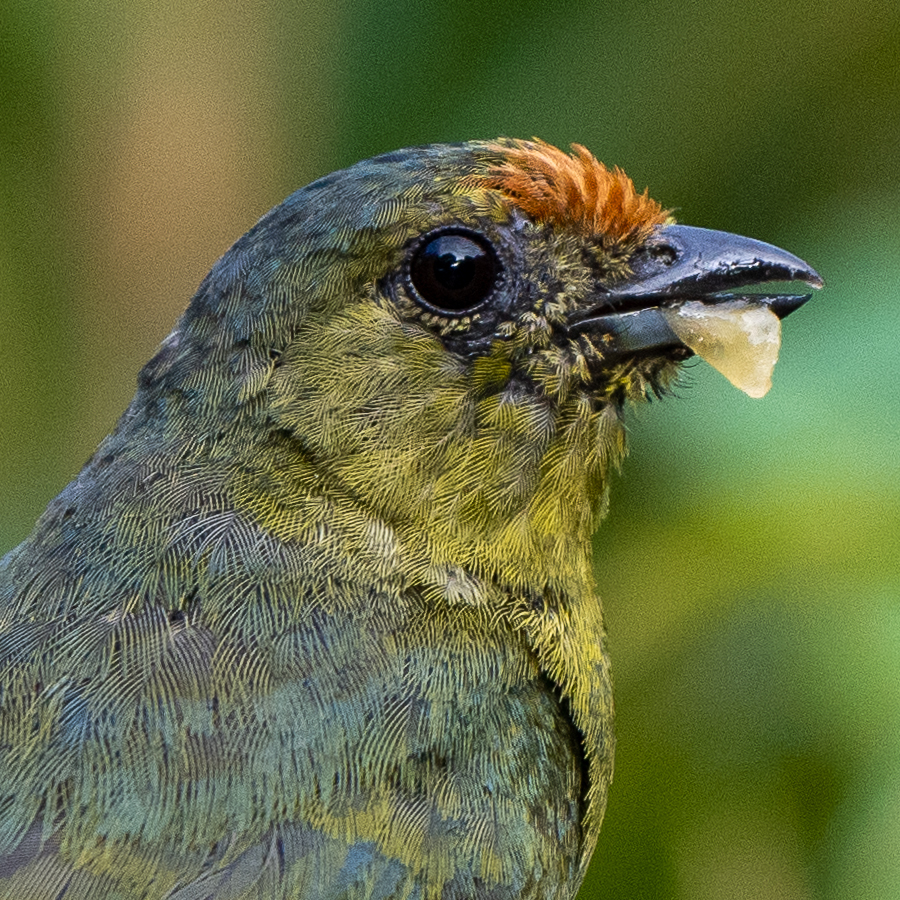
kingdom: Animalia
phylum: Chordata
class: Aves
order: Passeriformes
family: Fringillidae
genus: Euphonia
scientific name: Euphonia imitans
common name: Spot-crowned euphonia
